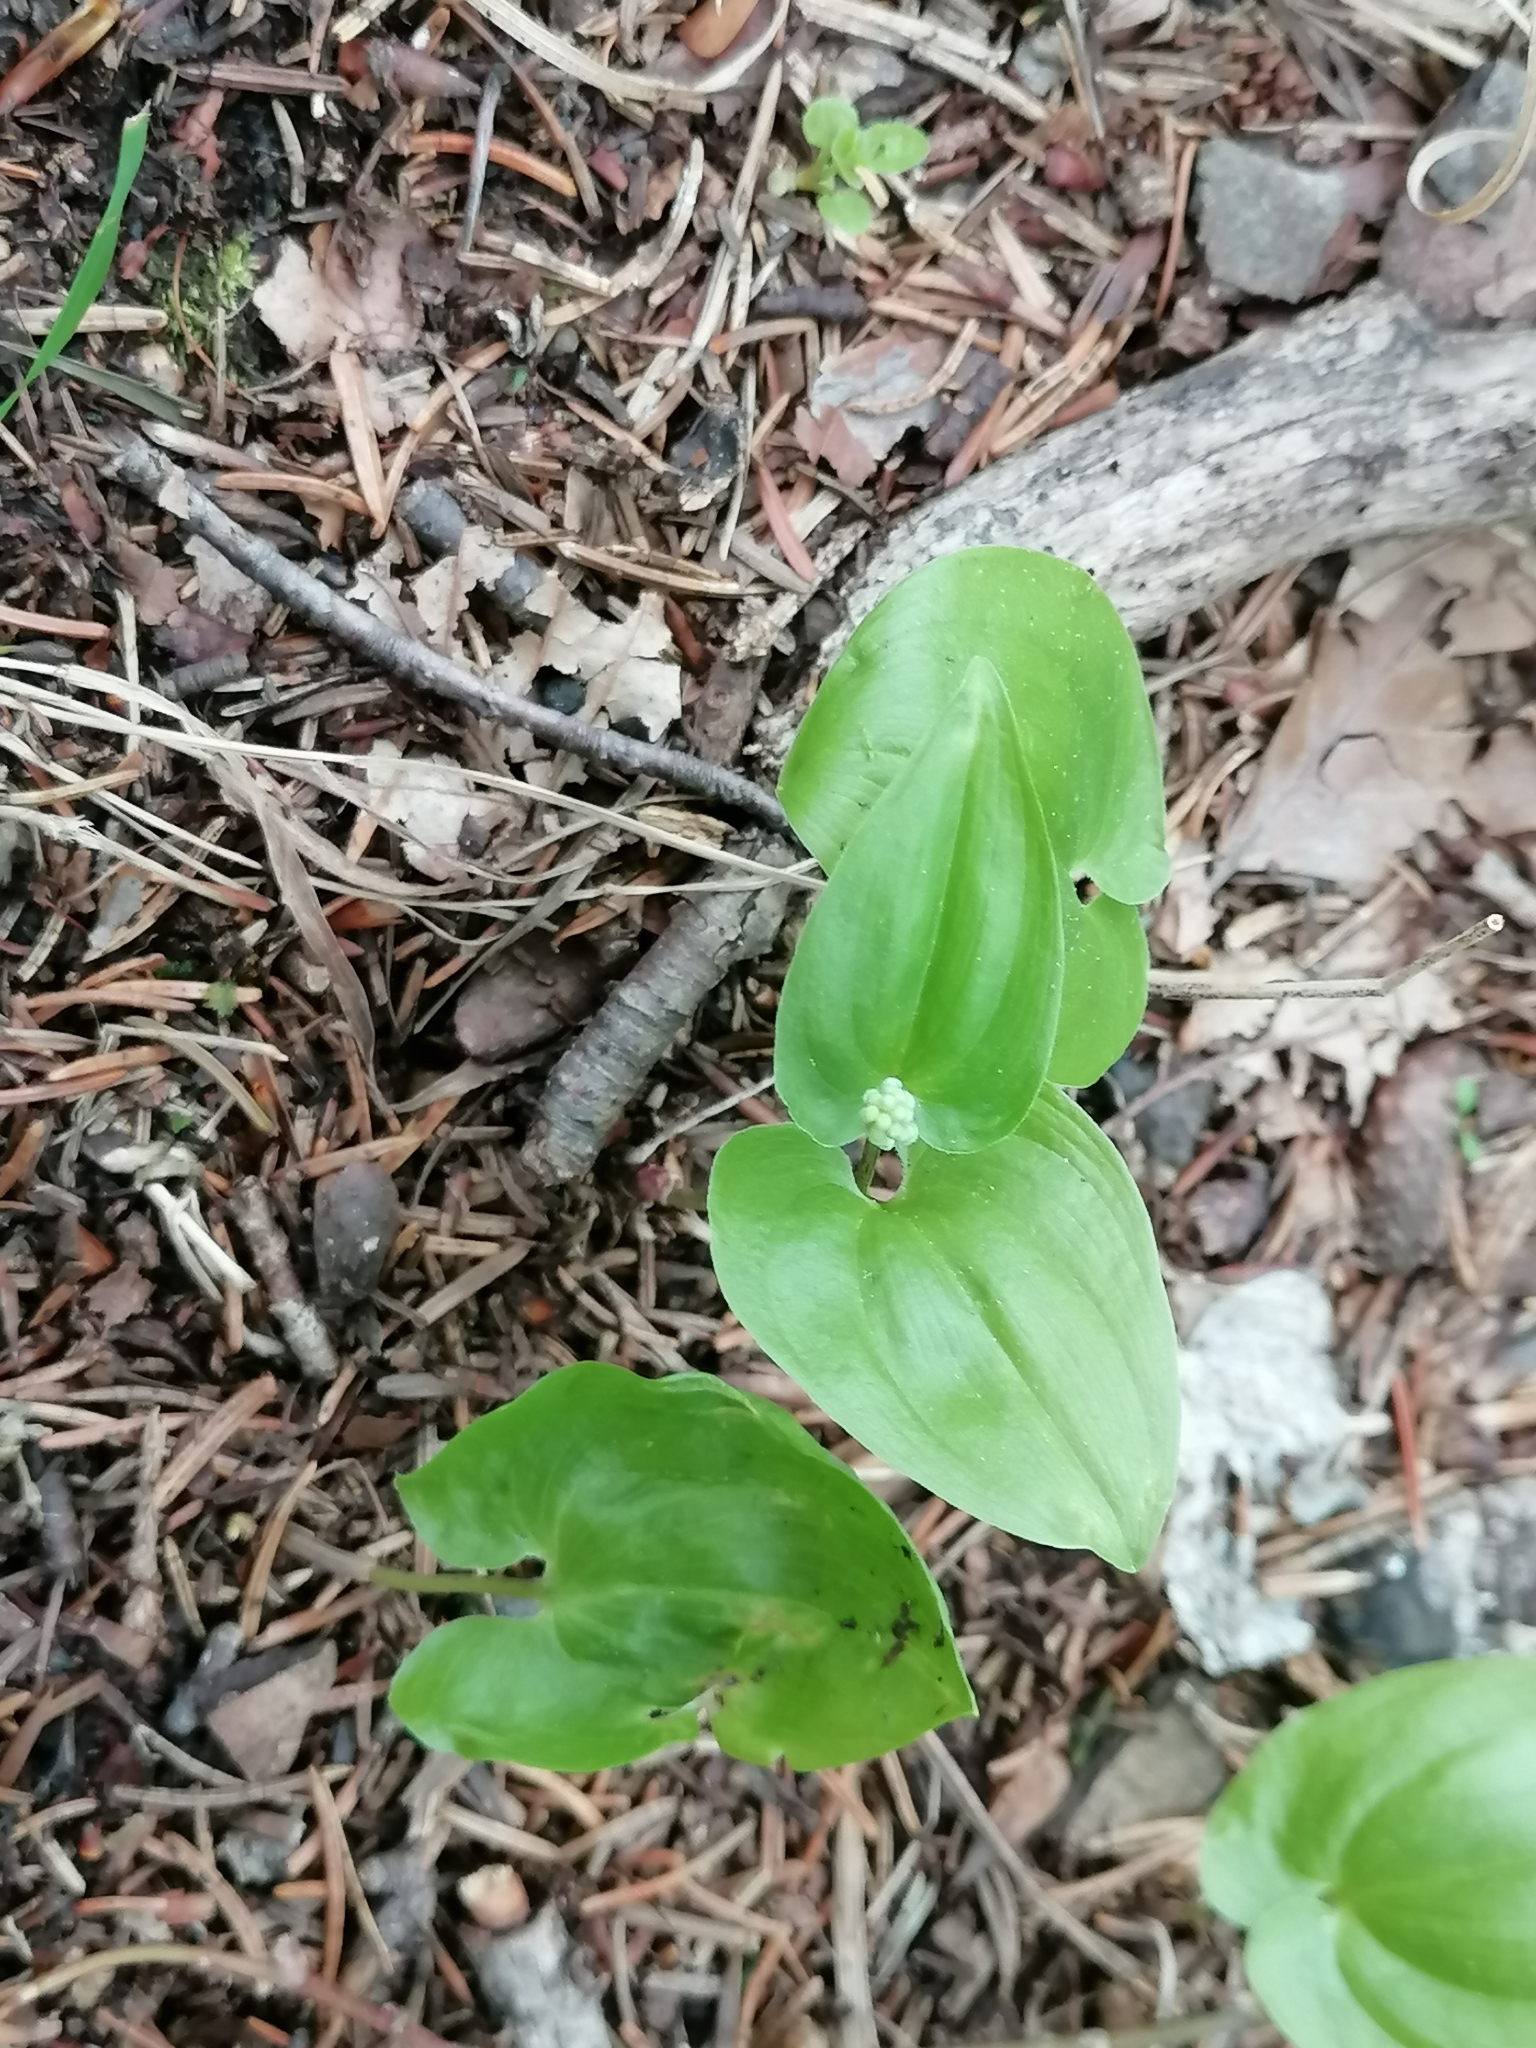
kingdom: Plantae
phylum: Tracheophyta
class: Liliopsida
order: Asparagales
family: Asparagaceae
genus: Maianthemum
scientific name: Maianthemum bifolium
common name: May lily
